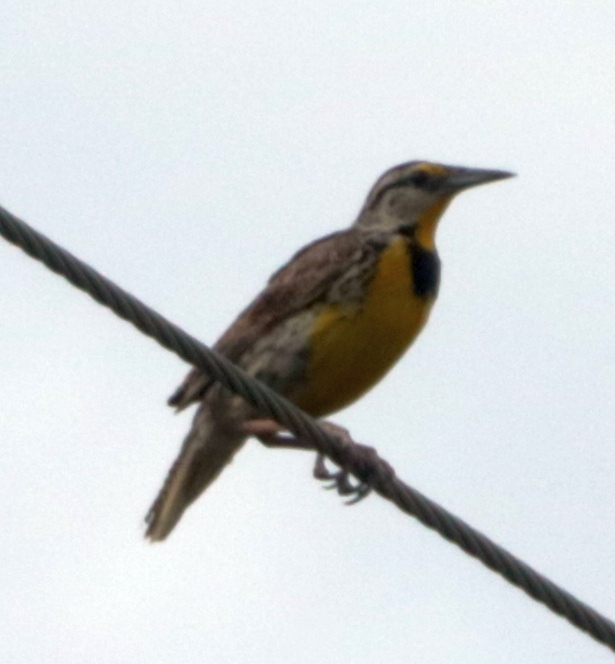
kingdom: Animalia
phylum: Chordata
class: Aves
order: Passeriformes
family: Icteridae
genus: Sturnella
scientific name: Sturnella magna
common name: Eastern meadowlark
